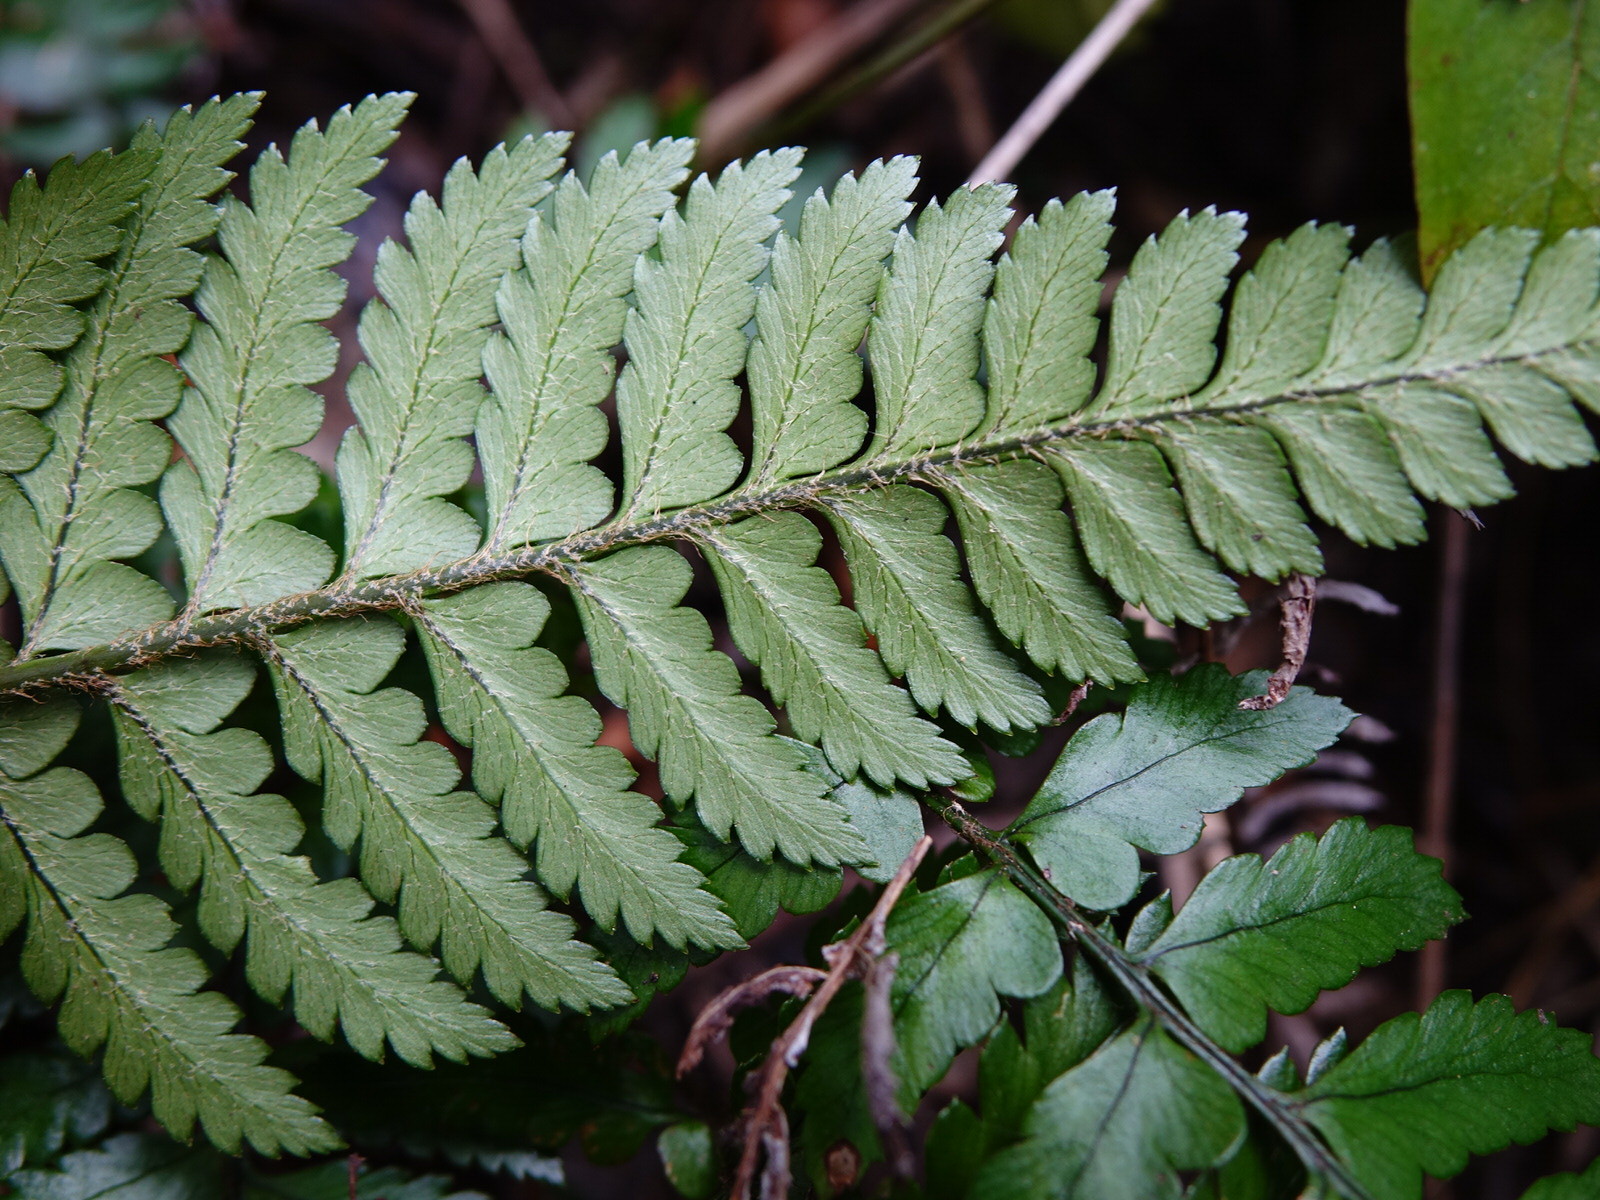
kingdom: Plantae
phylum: Tracheophyta
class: Polypodiopsida
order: Polypodiales
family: Dryopteridaceae
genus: Polystichum
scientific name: Polystichum wawranum
